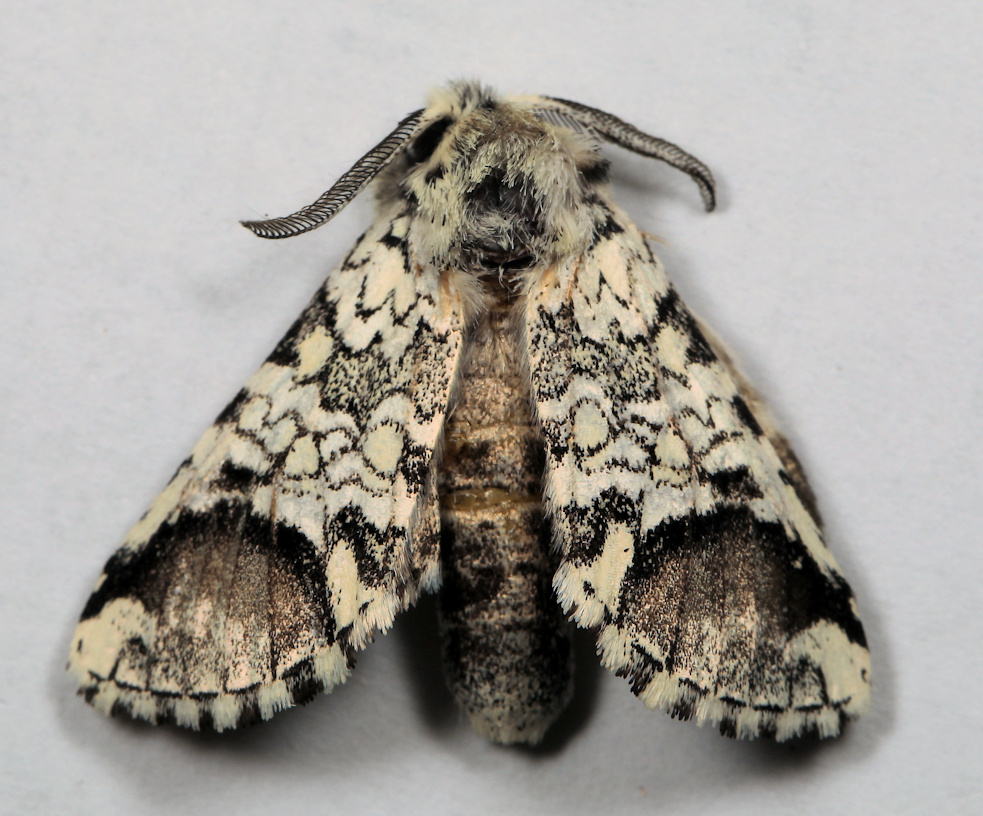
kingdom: Animalia
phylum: Arthropoda
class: Insecta
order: Lepidoptera
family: Notodontidae
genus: Pseudorethona
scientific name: Pseudorethona albicans
